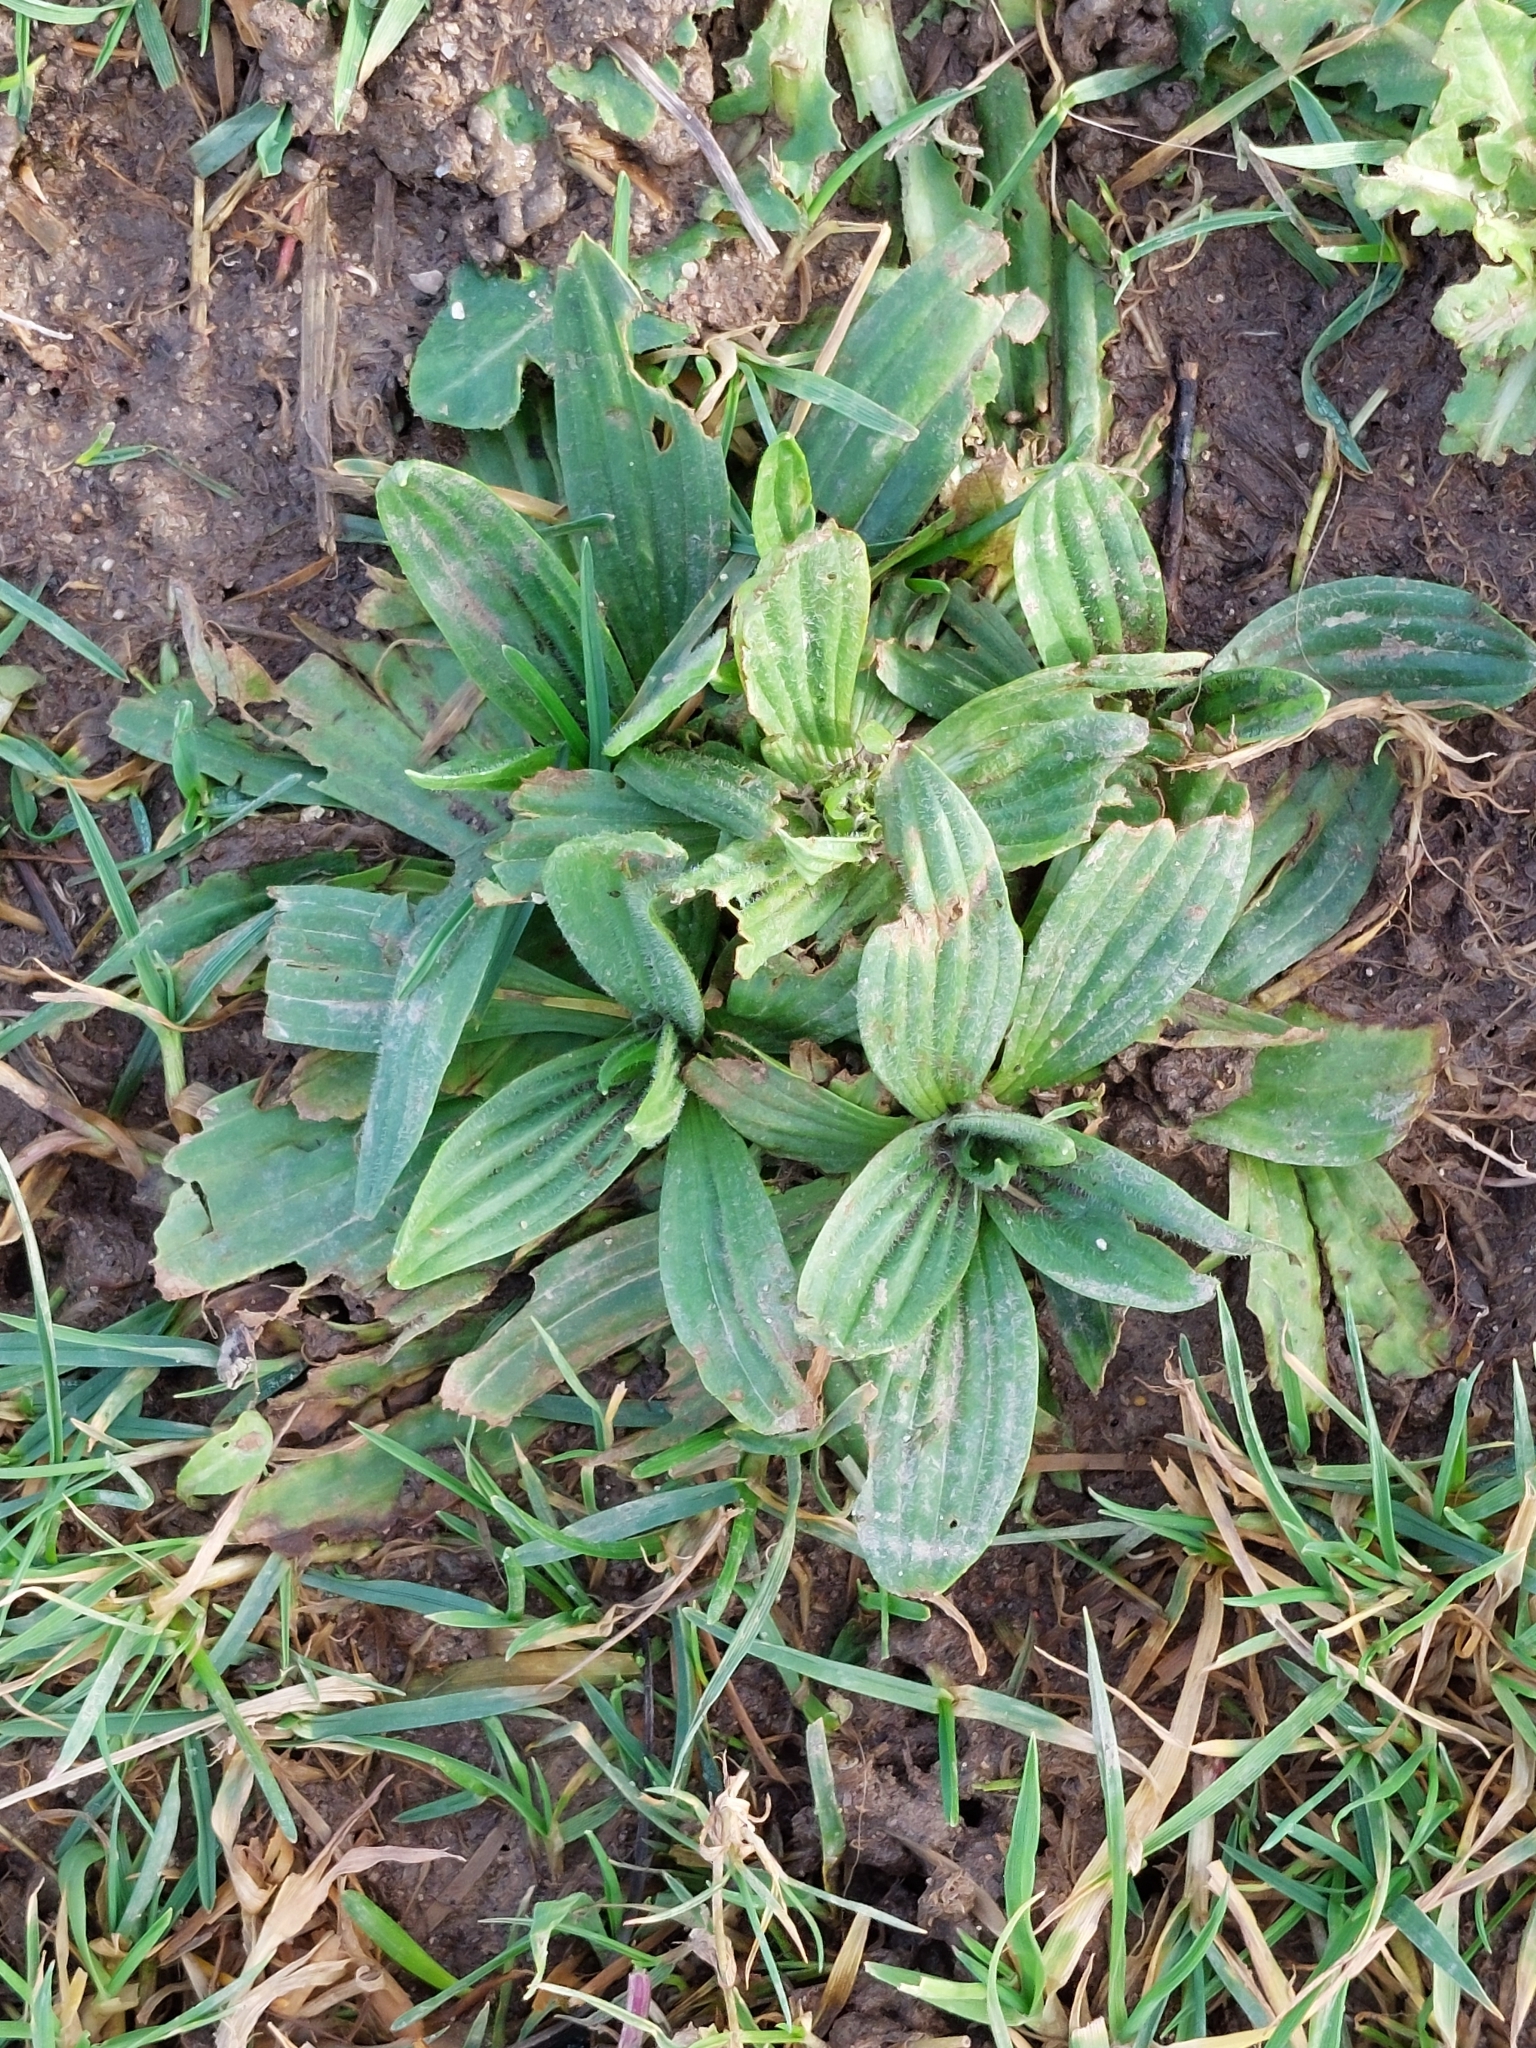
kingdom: Plantae
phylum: Tracheophyta
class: Magnoliopsida
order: Lamiales
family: Plantaginaceae
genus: Plantago
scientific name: Plantago lanceolata
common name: Ribwort plantain
